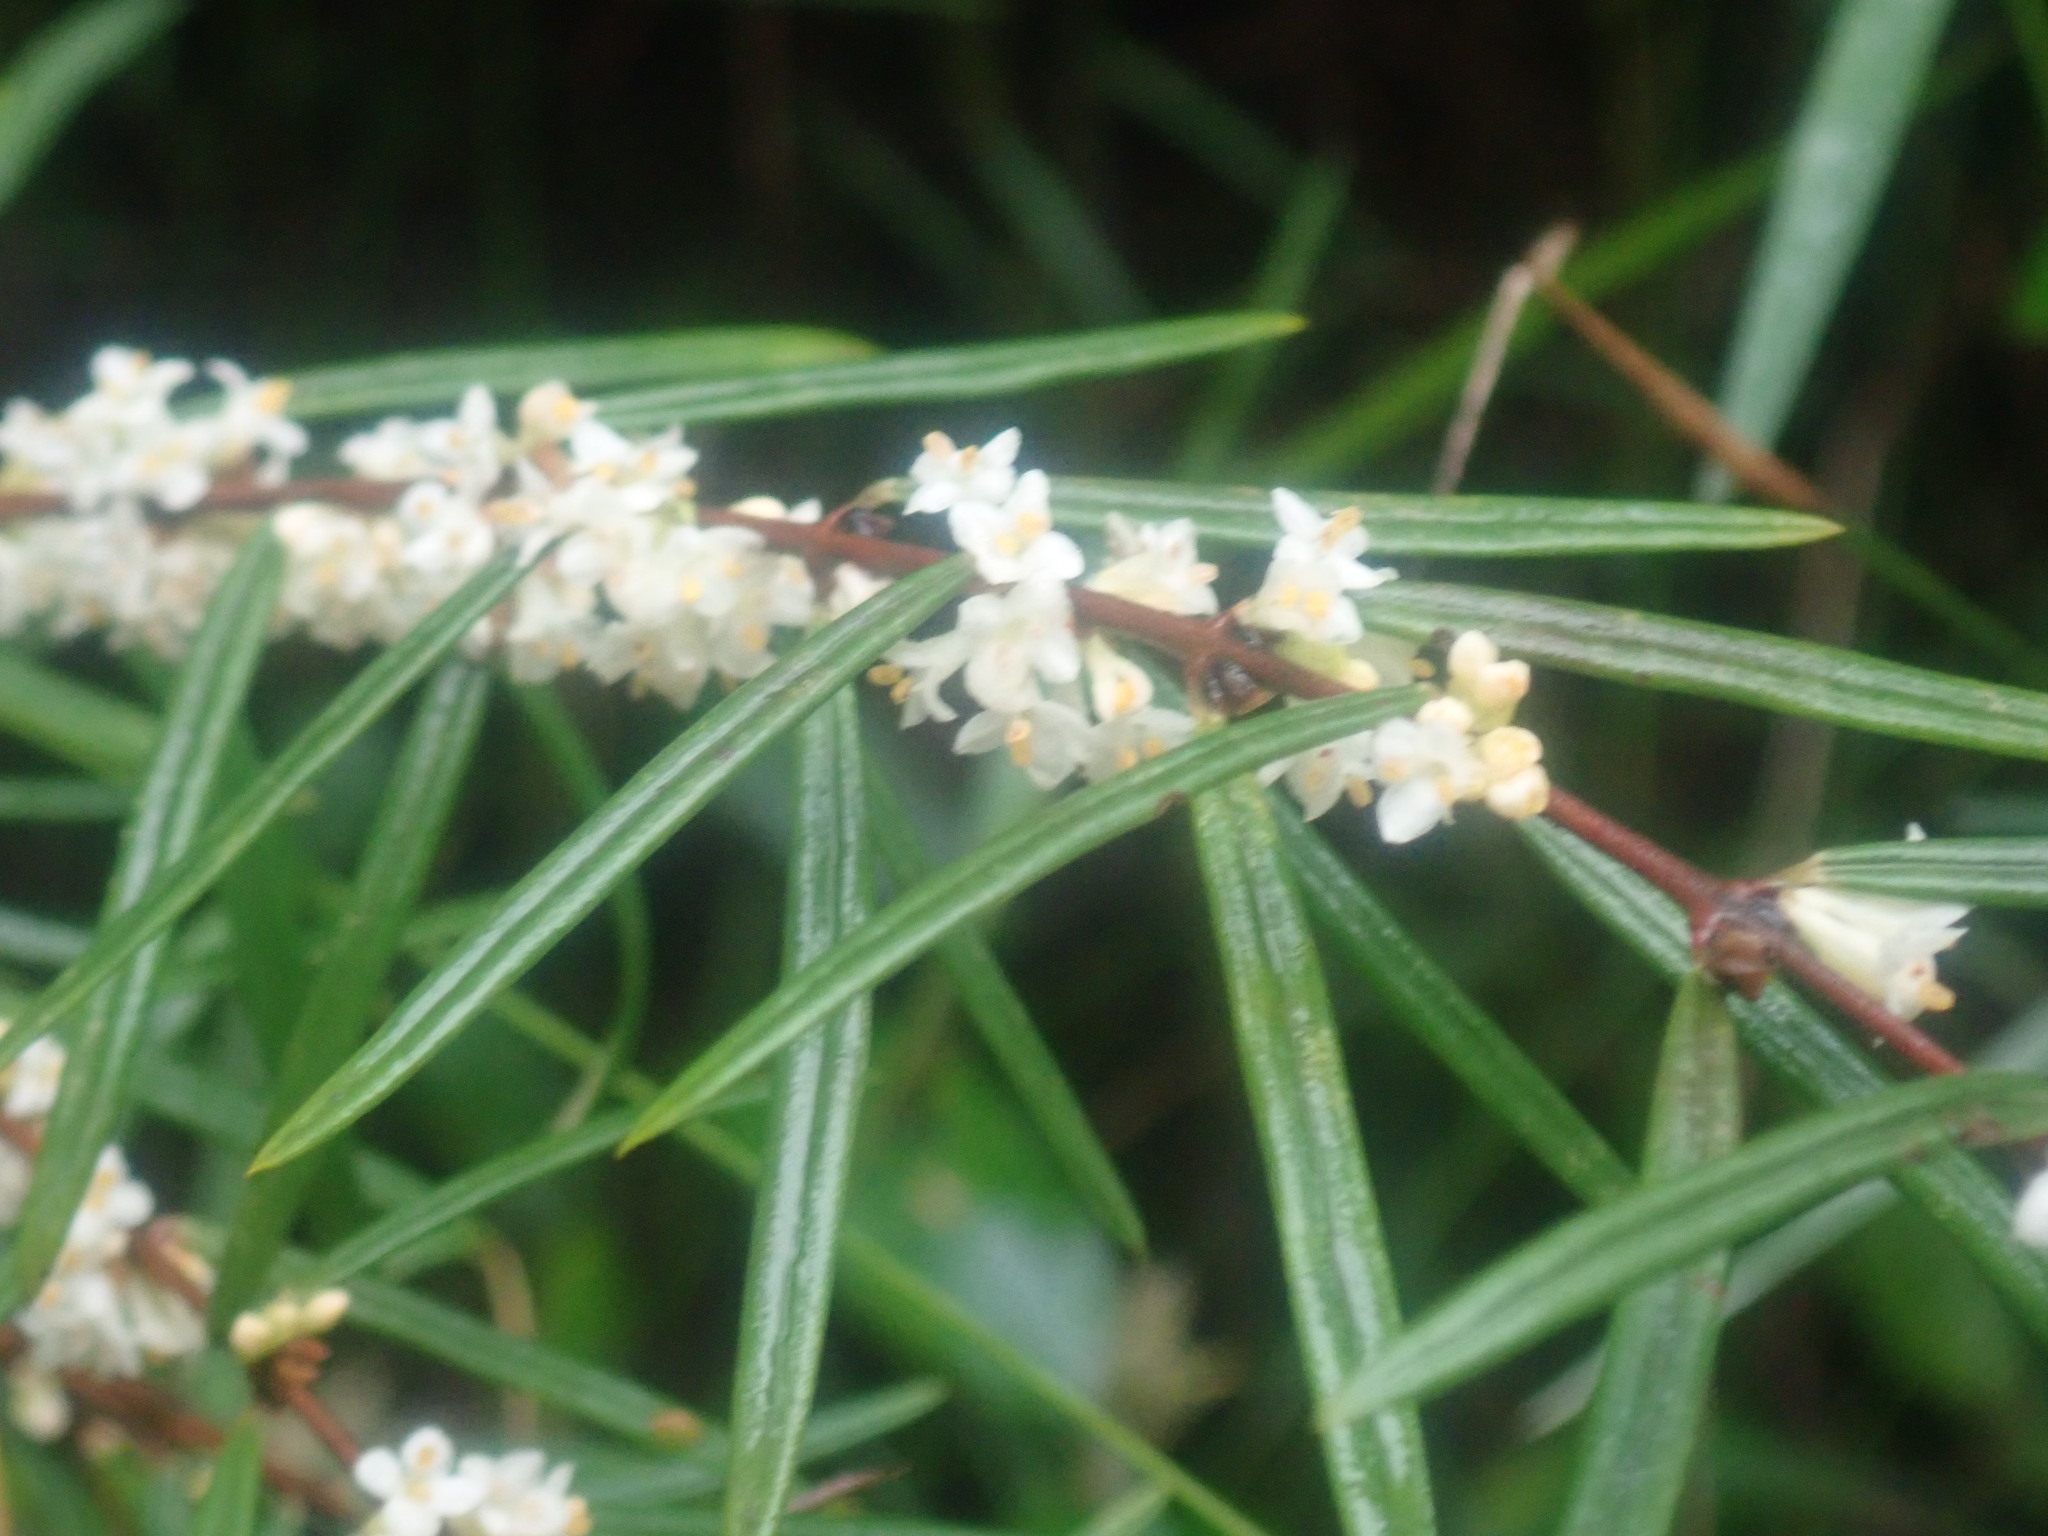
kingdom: Plantae
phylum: Tracheophyta
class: Magnoliopsida
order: Malvales
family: Thymelaeaceae
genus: Pimelea
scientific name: Pimelea axiflora
